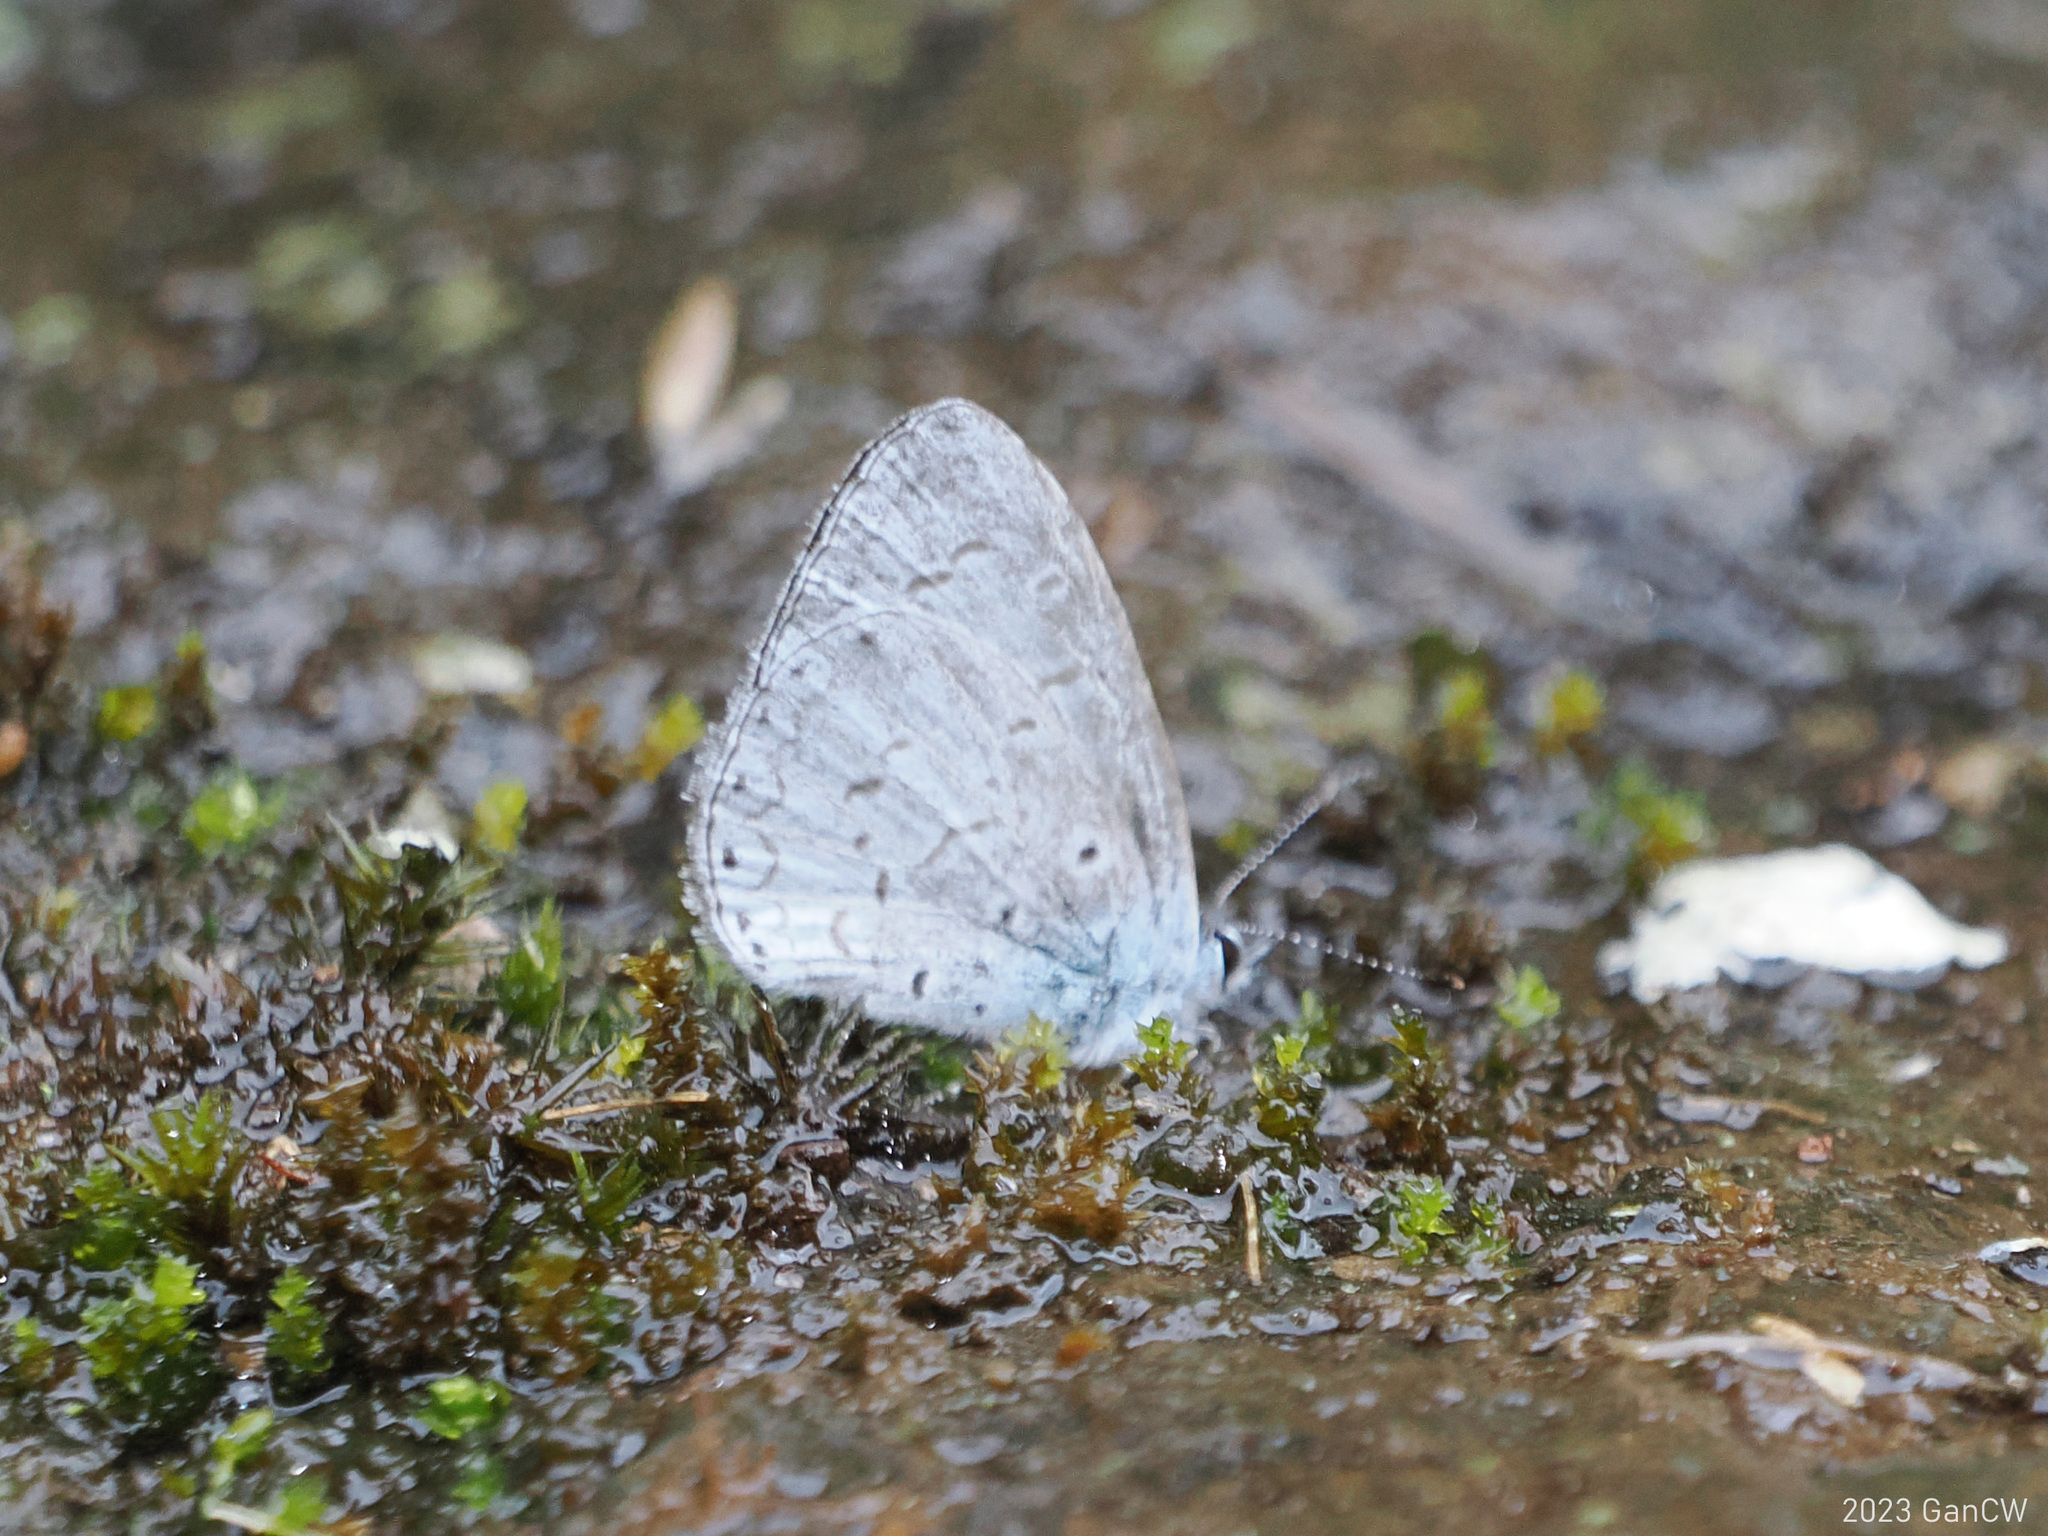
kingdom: Animalia
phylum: Arthropoda
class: Insecta
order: Lepidoptera
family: Lycaenidae
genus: Udara
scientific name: Udara dilectus
